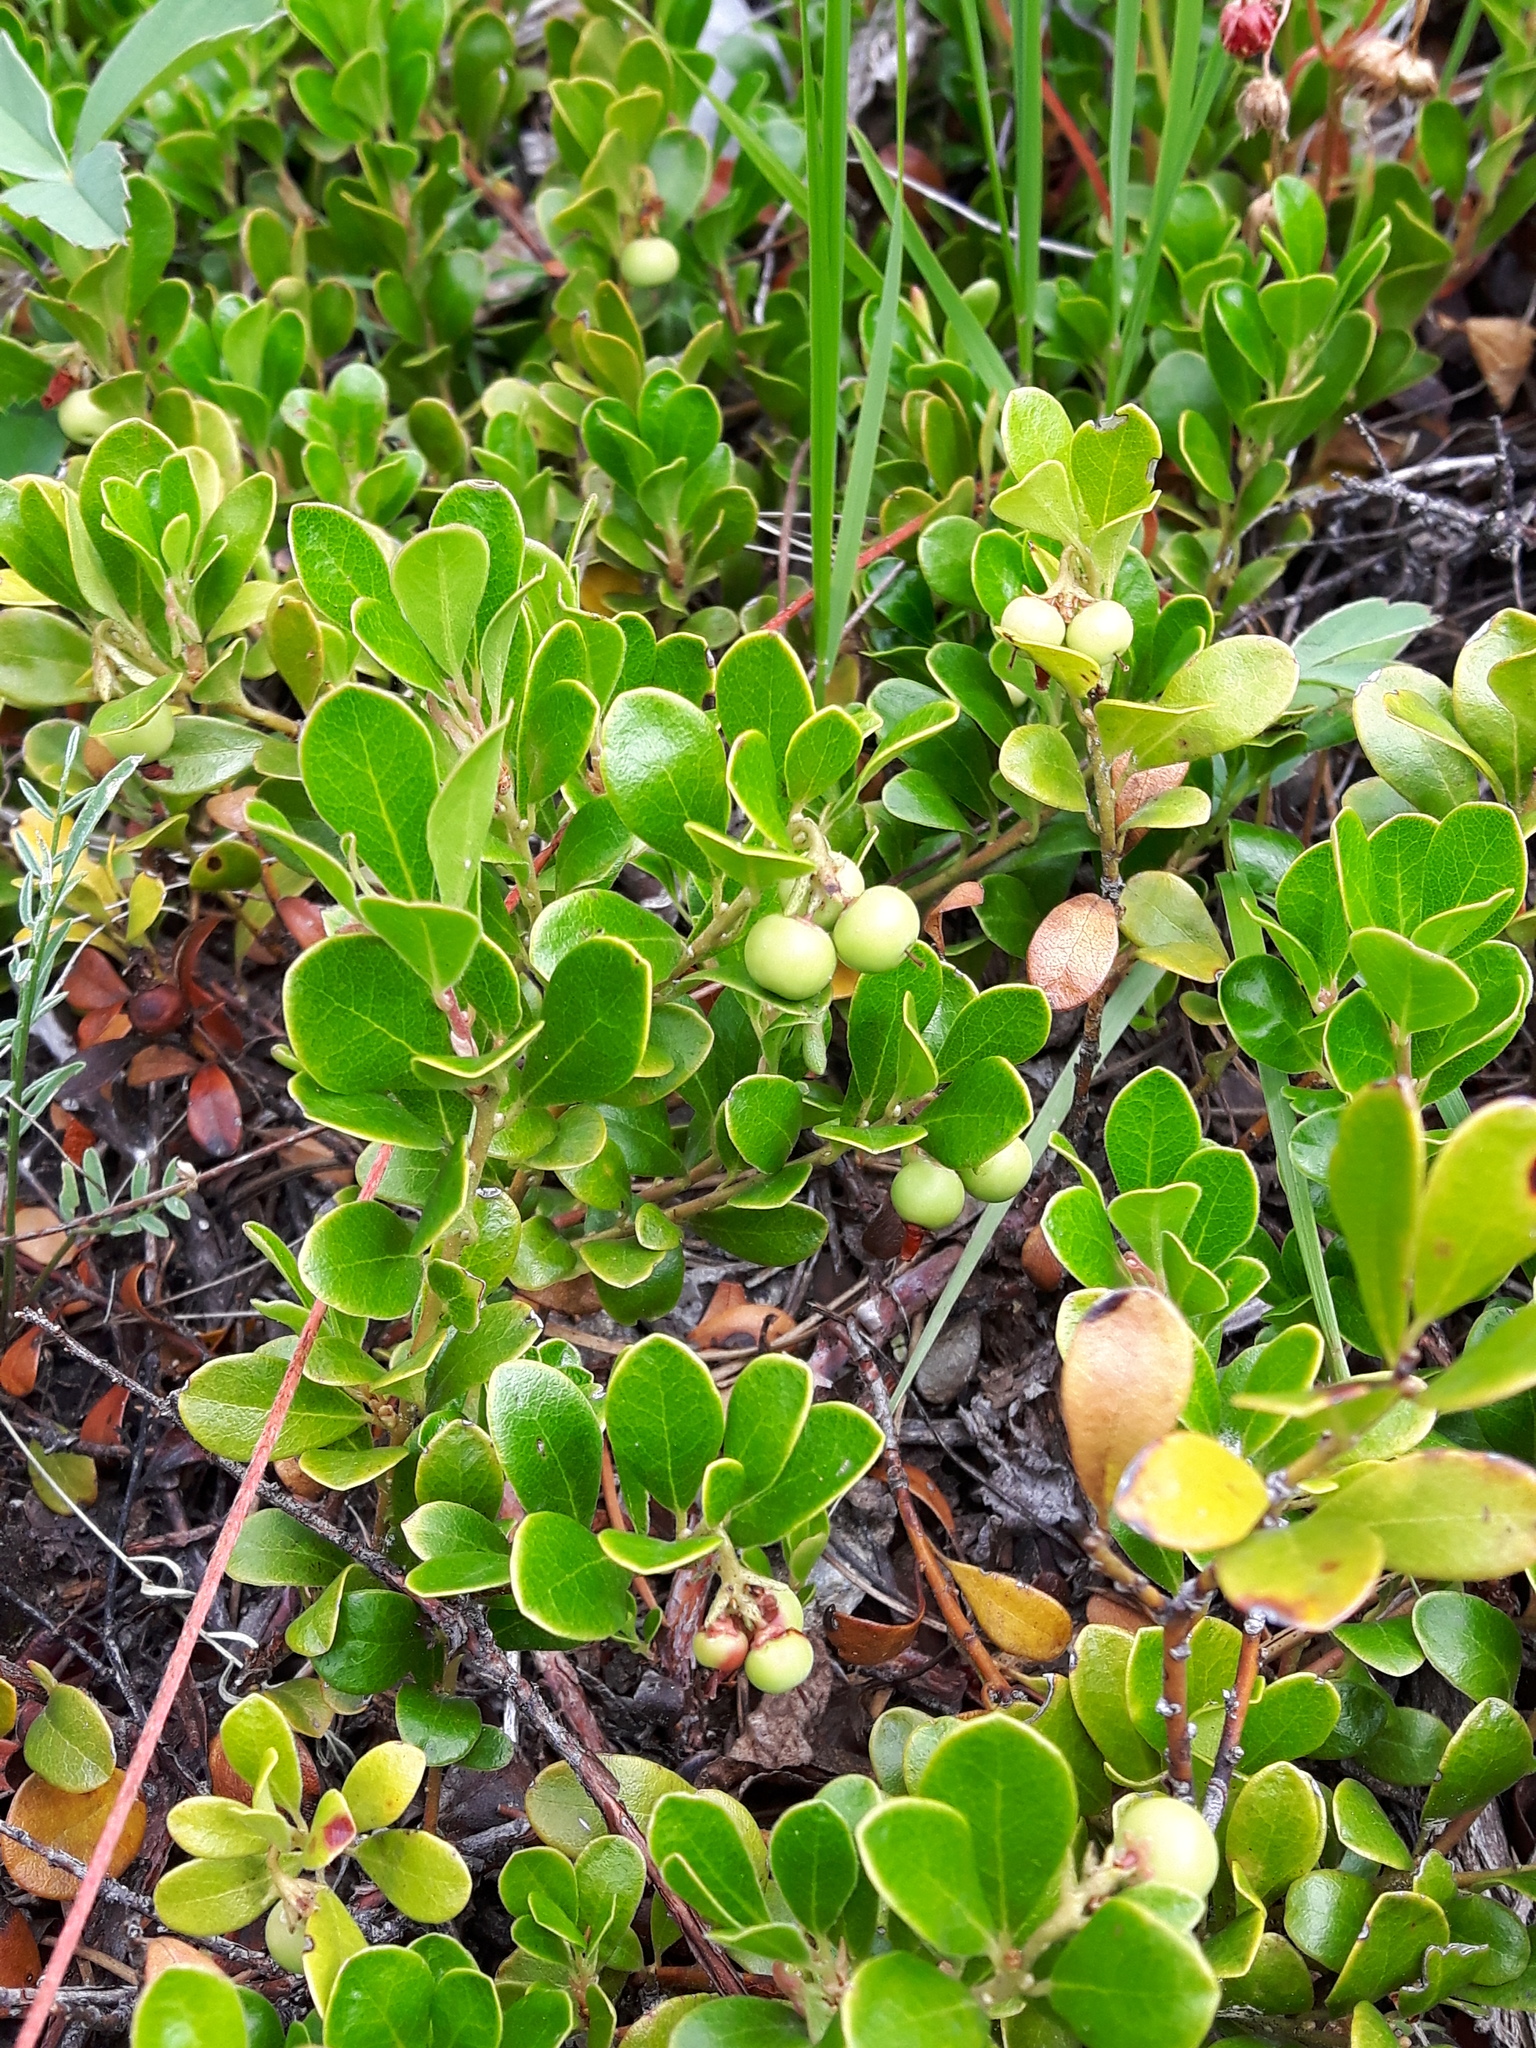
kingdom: Plantae
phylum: Tracheophyta
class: Magnoliopsida
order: Ericales
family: Ericaceae
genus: Arctostaphylos
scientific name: Arctostaphylos uva-ursi
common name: Bearberry
